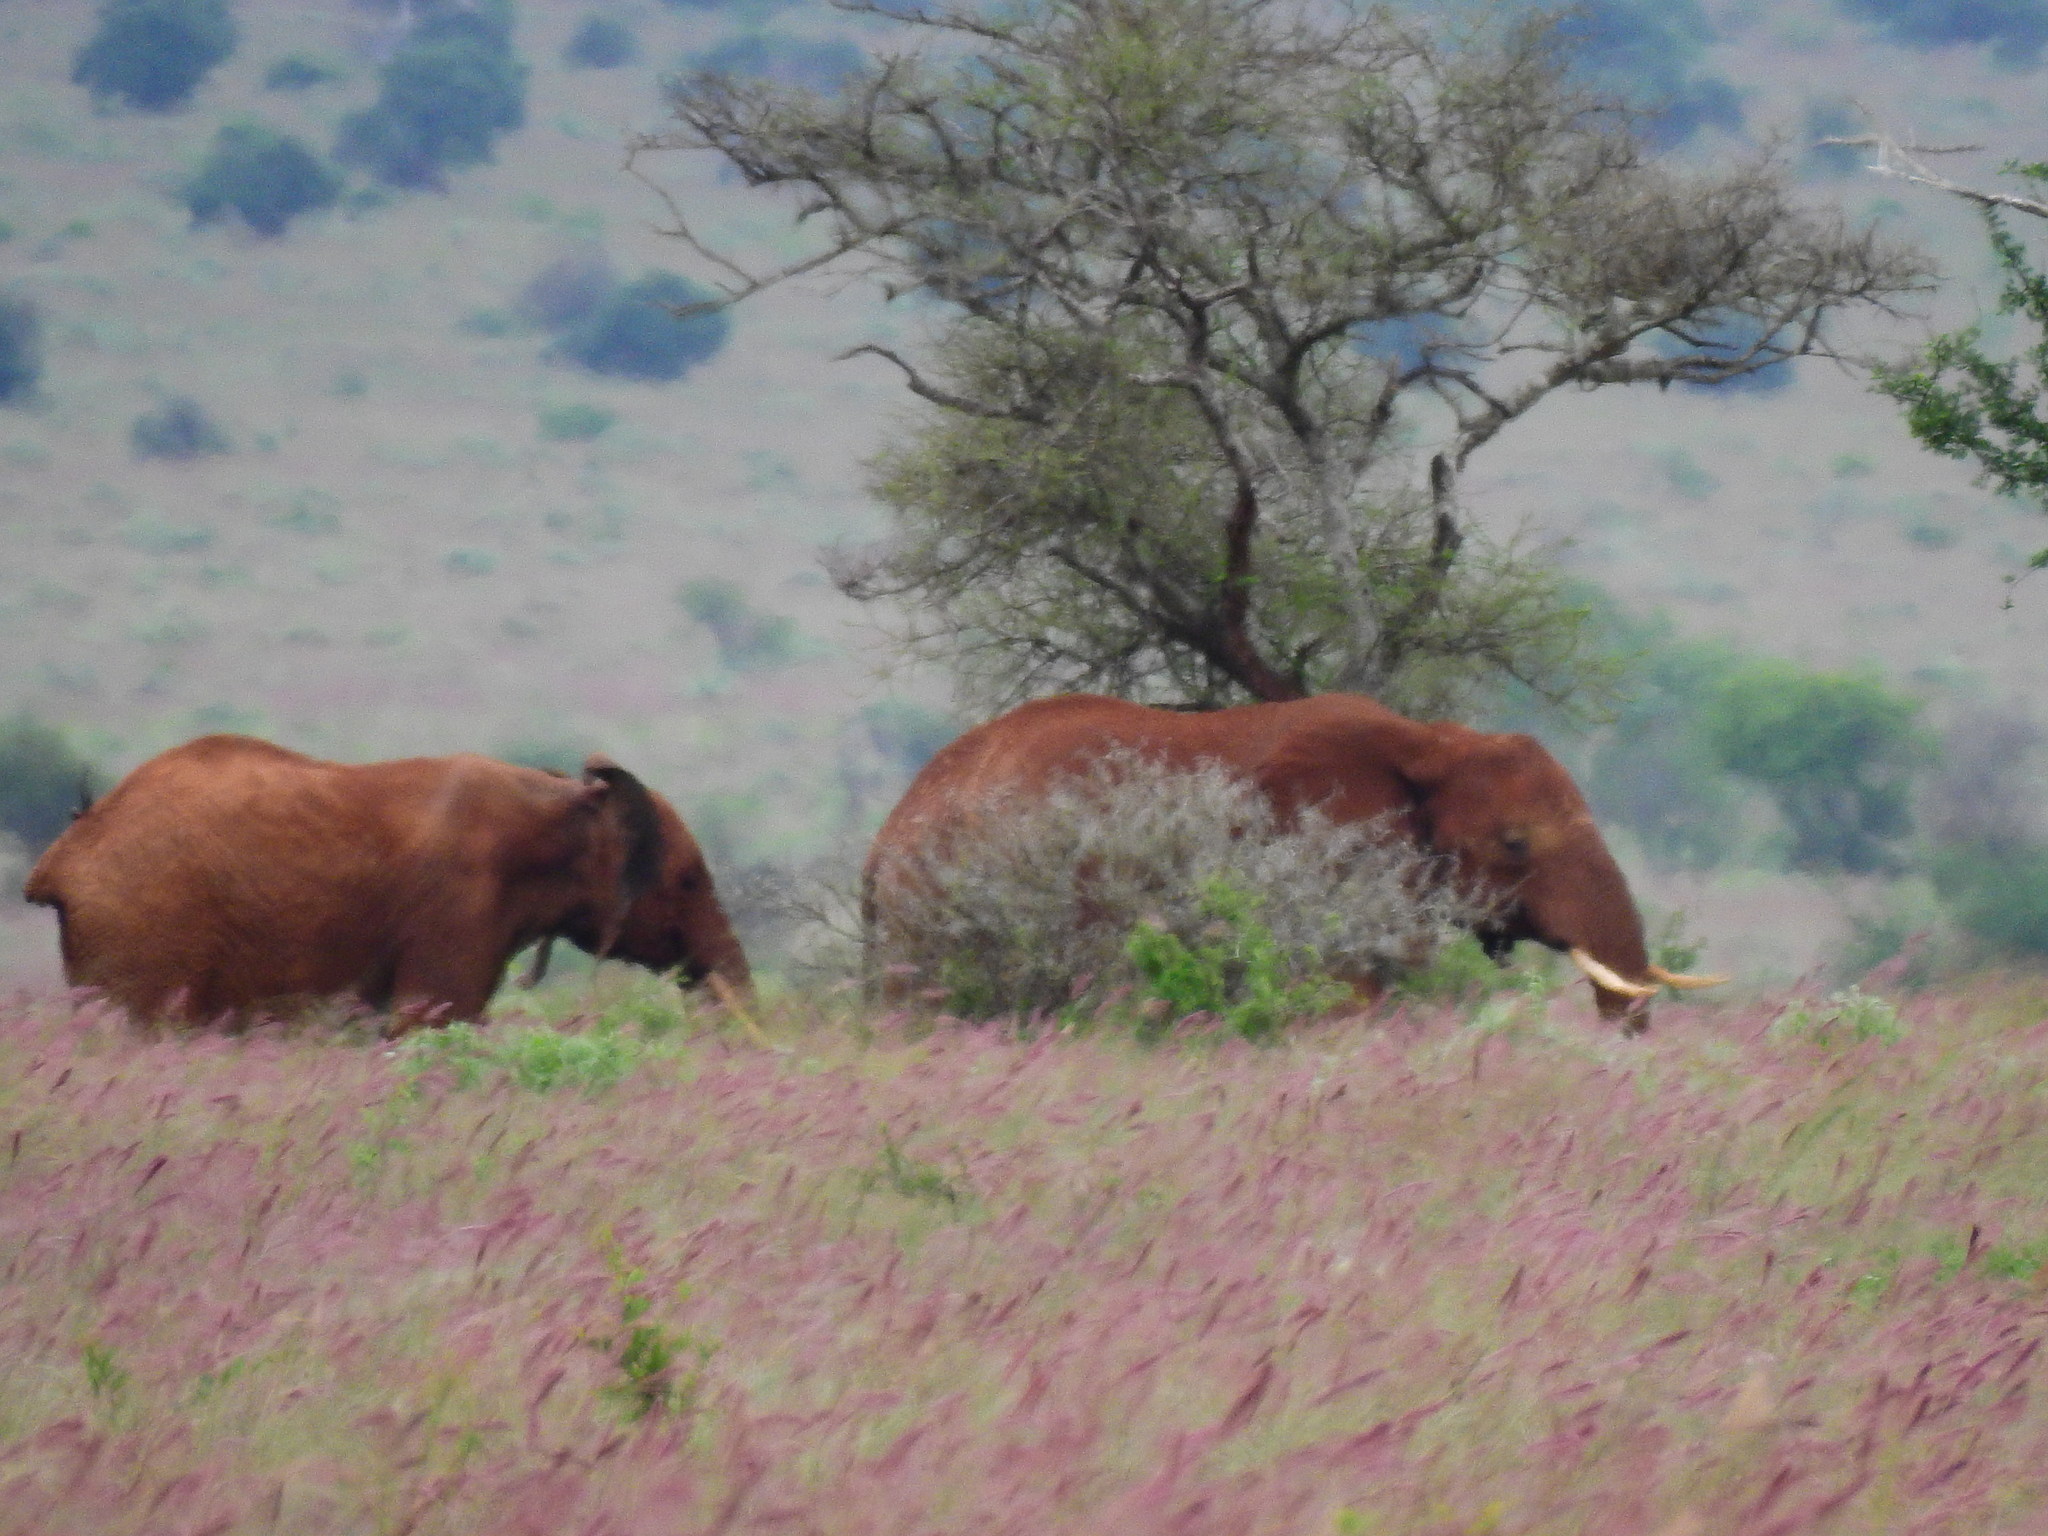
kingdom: Animalia
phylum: Chordata
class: Mammalia
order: Proboscidea
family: Elephantidae
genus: Loxodonta
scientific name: Loxodonta africana
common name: African elephant
